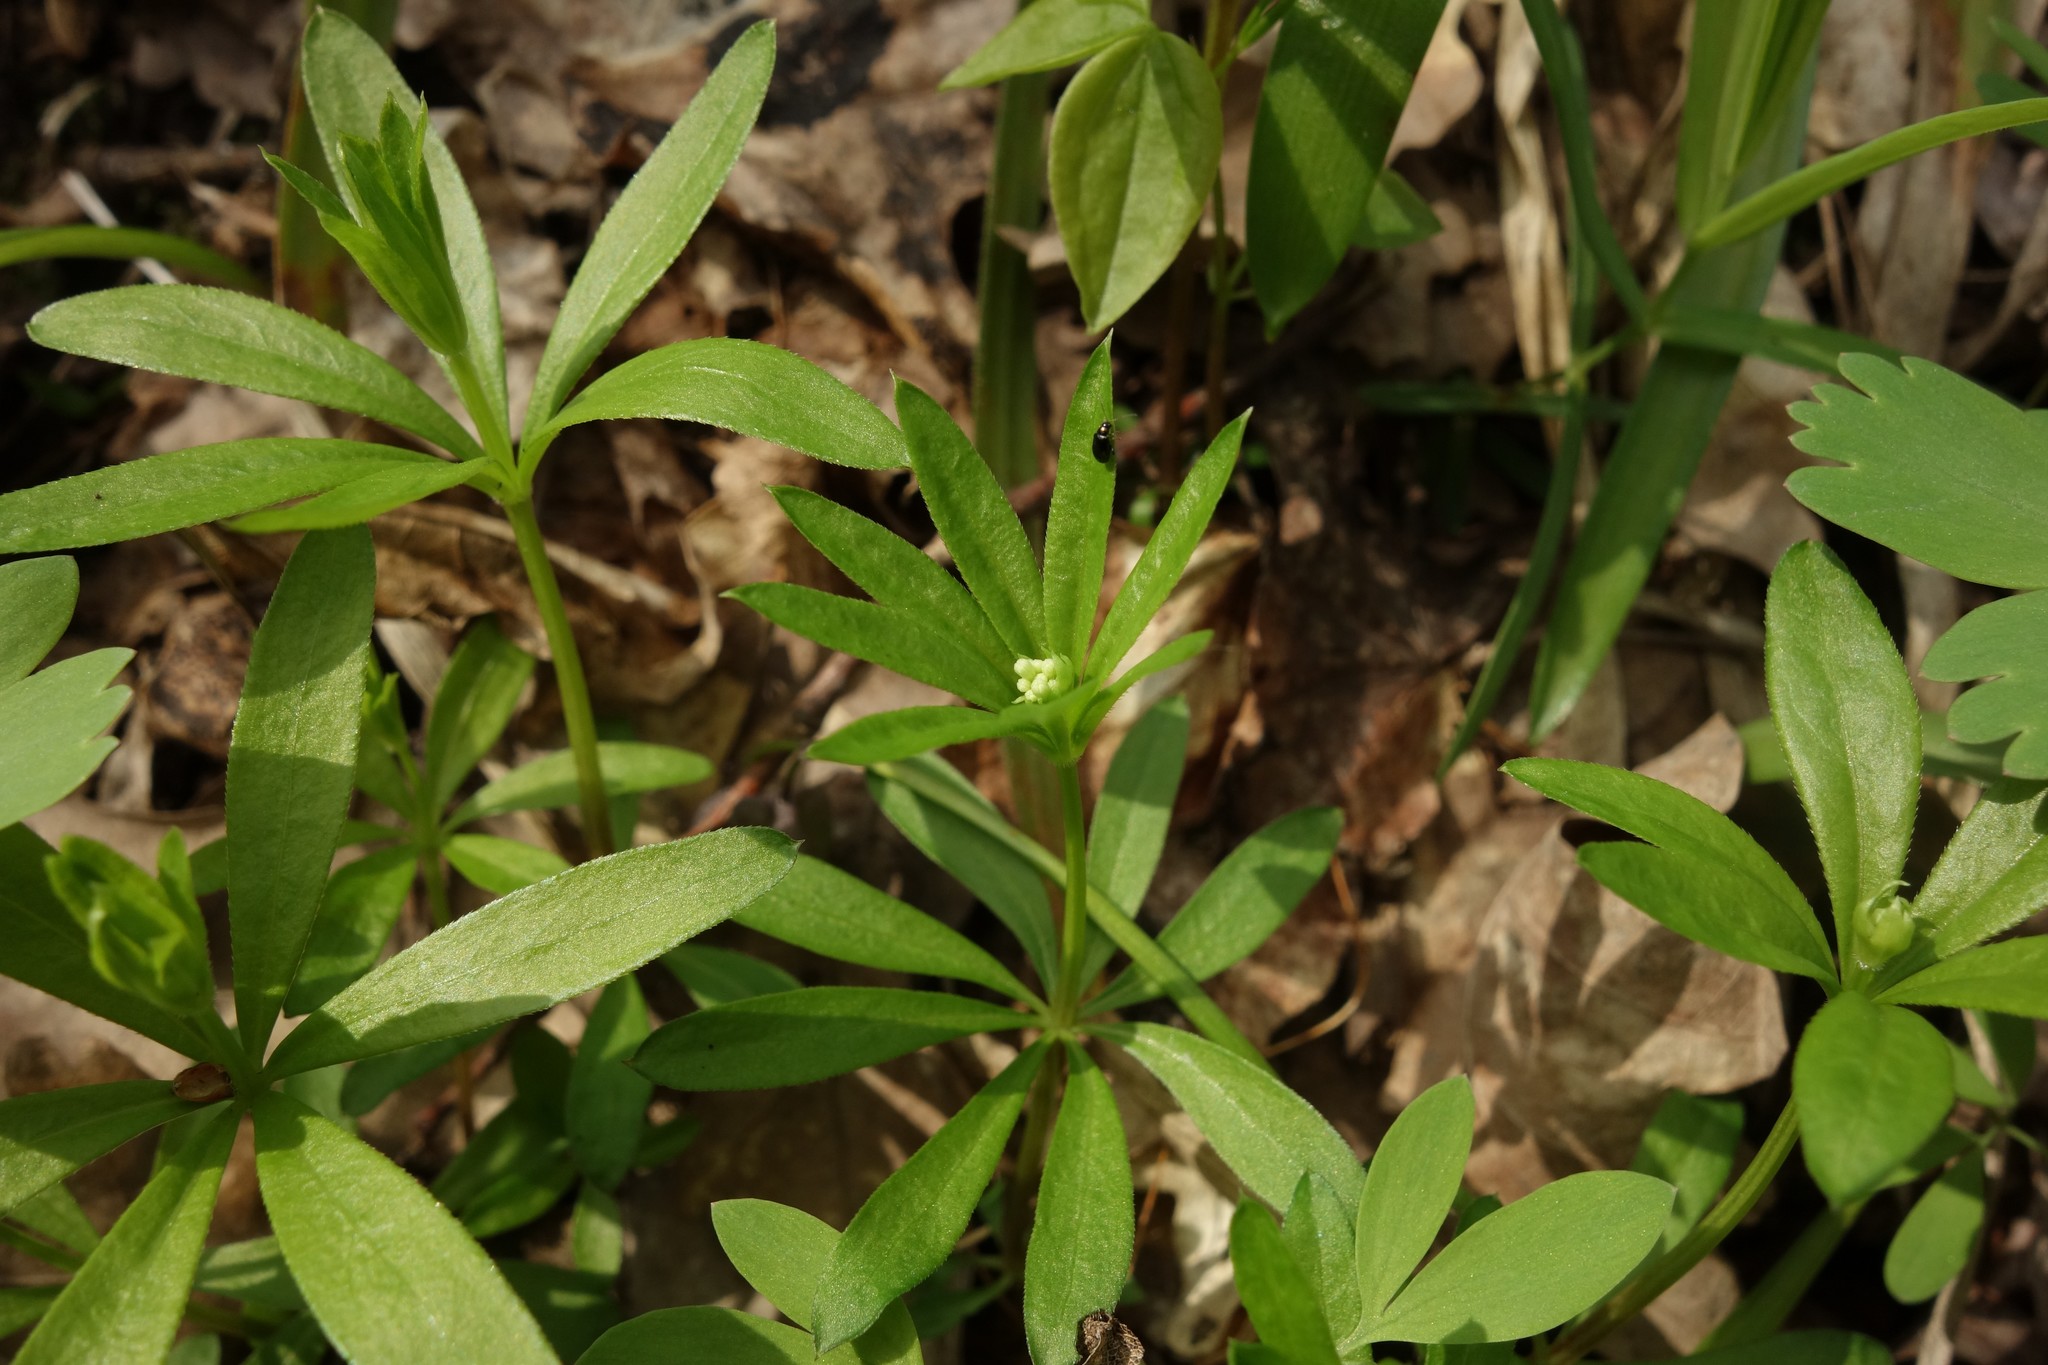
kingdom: Plantae
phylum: Tracheophyta
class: Magnoliopsida
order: Gentianales
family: Rubiaceae
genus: Galium
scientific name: Galium odoratum
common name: Sweet woodruff
